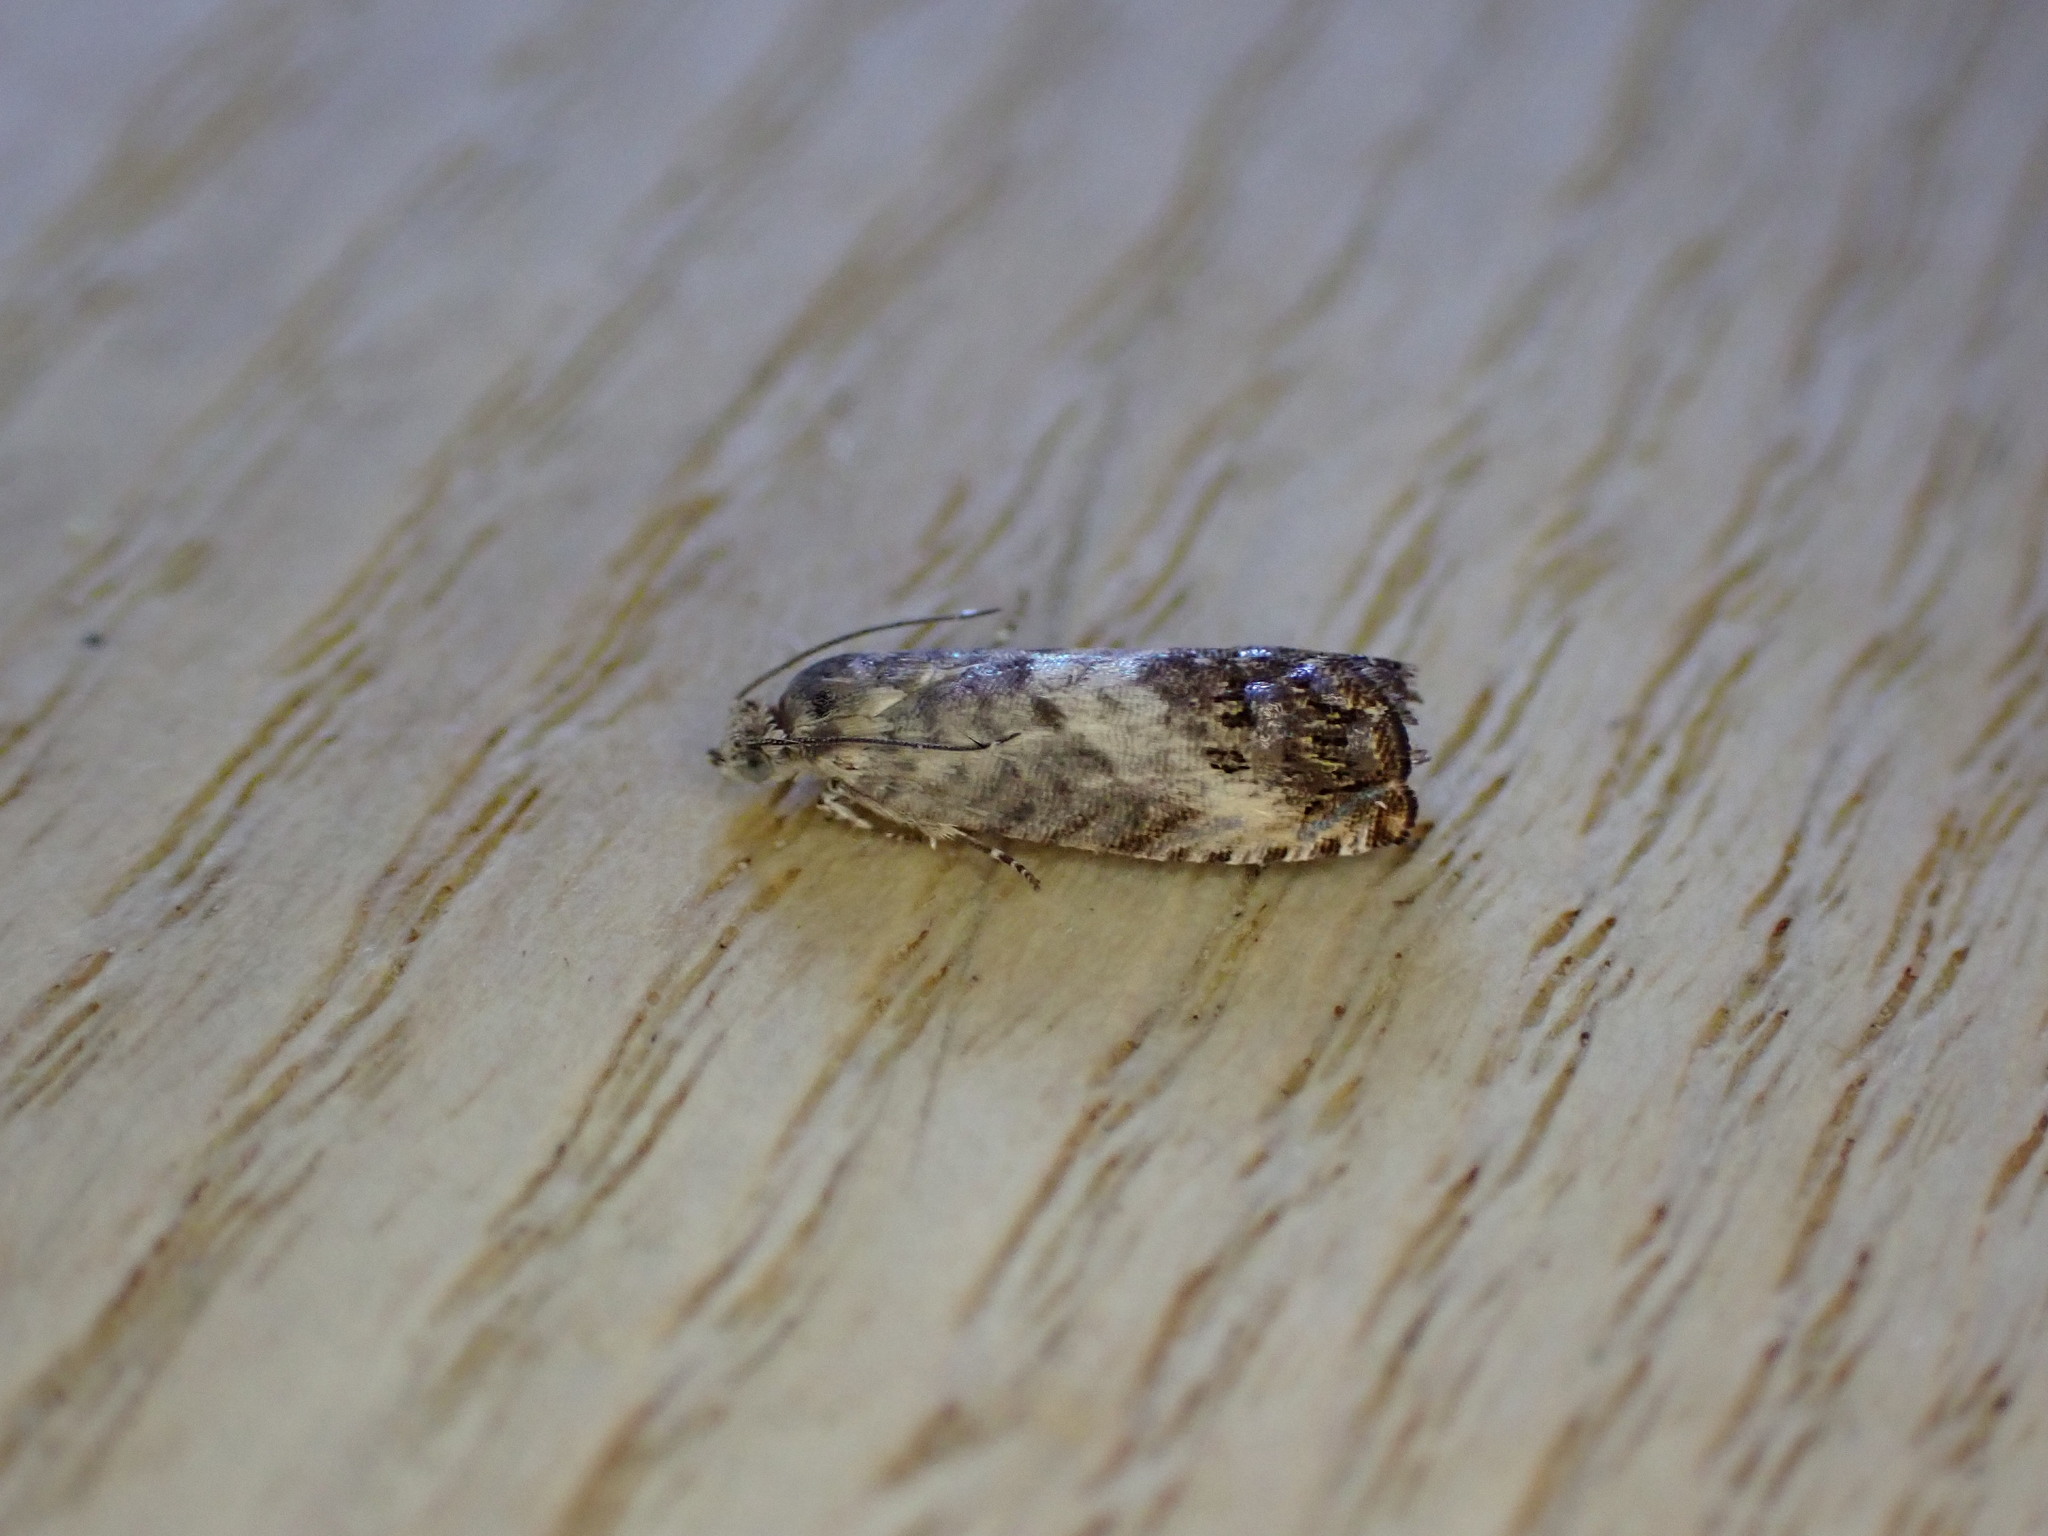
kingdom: Animalia
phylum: Arthropoda
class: Insecta
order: Lepidoptera
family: Tortricidae
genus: Pammene
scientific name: Pammene fasciana
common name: Acorn piercer
